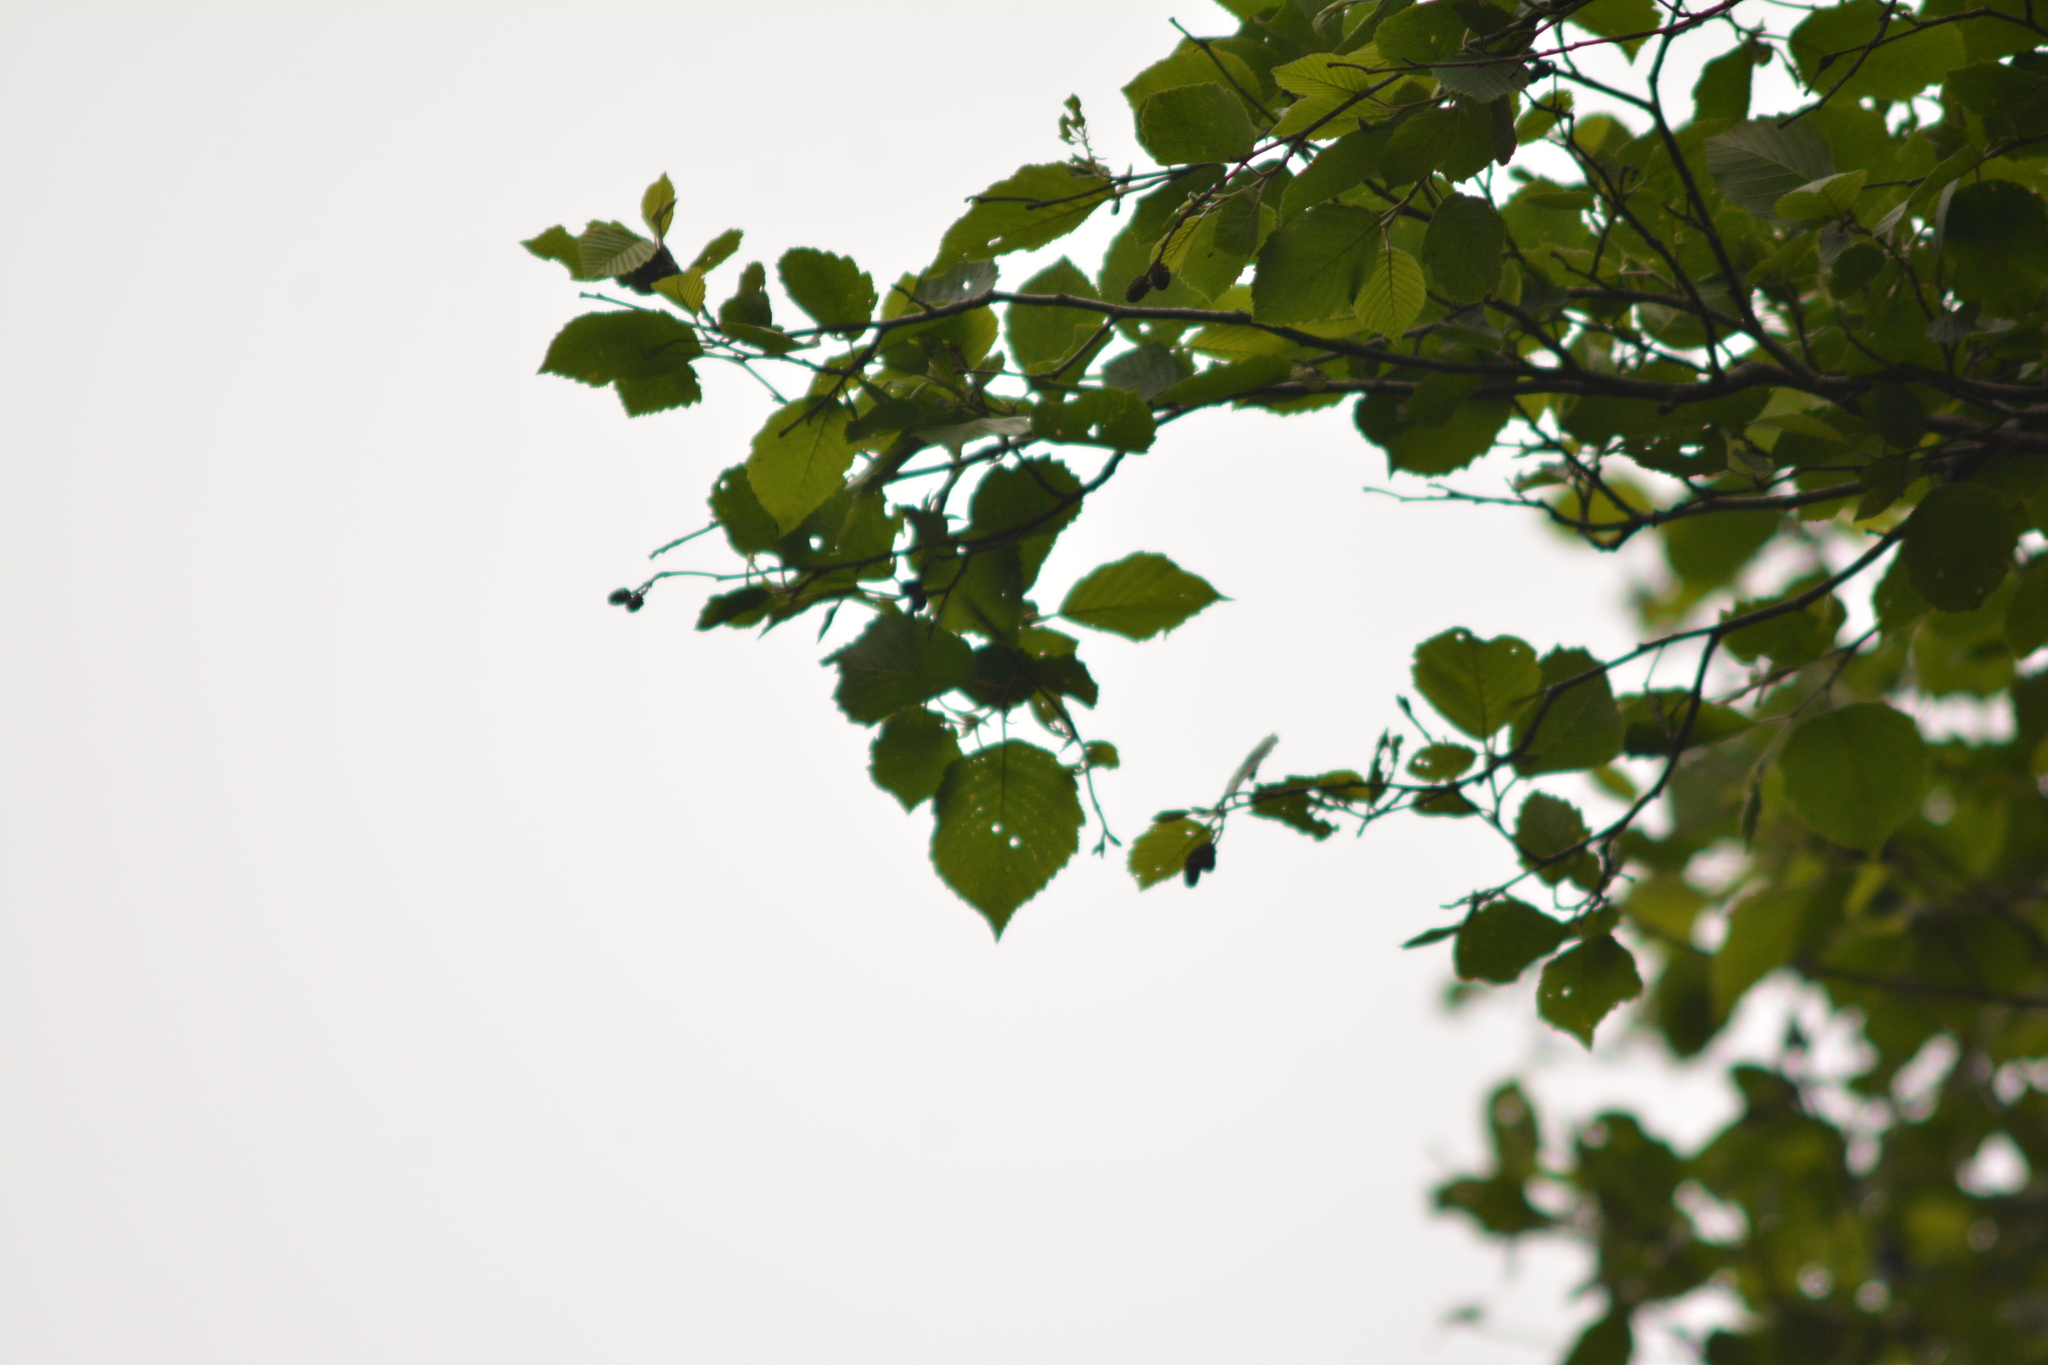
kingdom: Plantae
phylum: Tracheophyta
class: Magnoliopsida
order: Fagales
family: Betulaceae
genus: Alnus
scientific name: Alnus incana
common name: Grey alder
